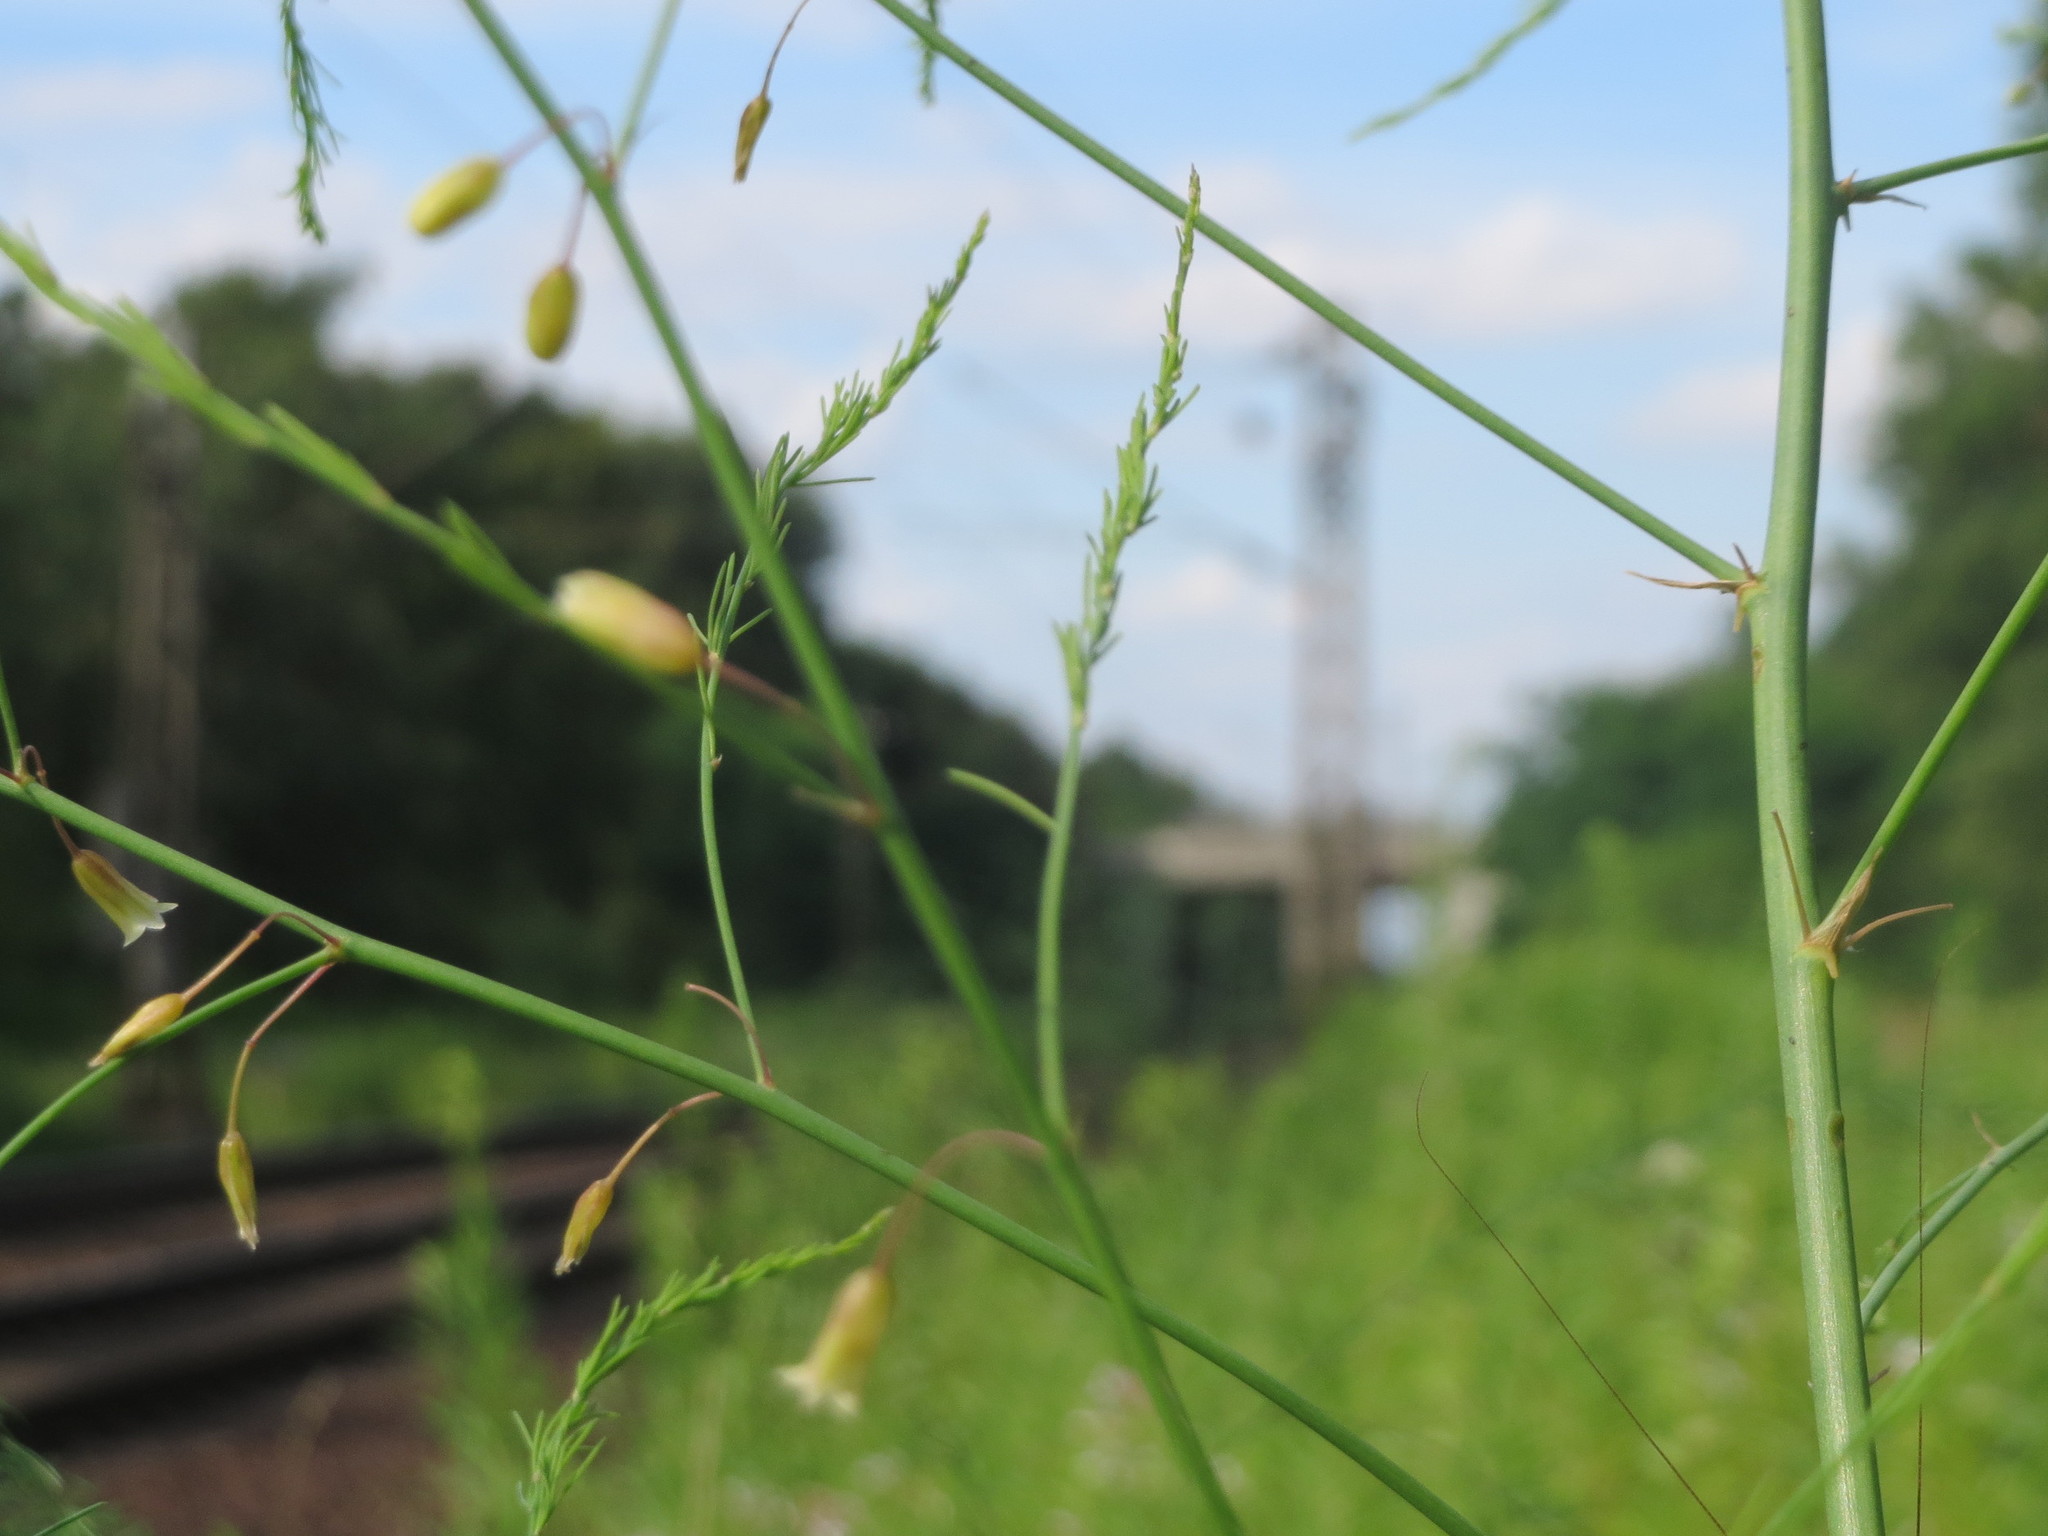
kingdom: Plantae
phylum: Tracheophyta
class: Liliopsida
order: Asparagales
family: Asparagaceae
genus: Asparagus
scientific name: Asparagus officinalis
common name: Garden asparagus
